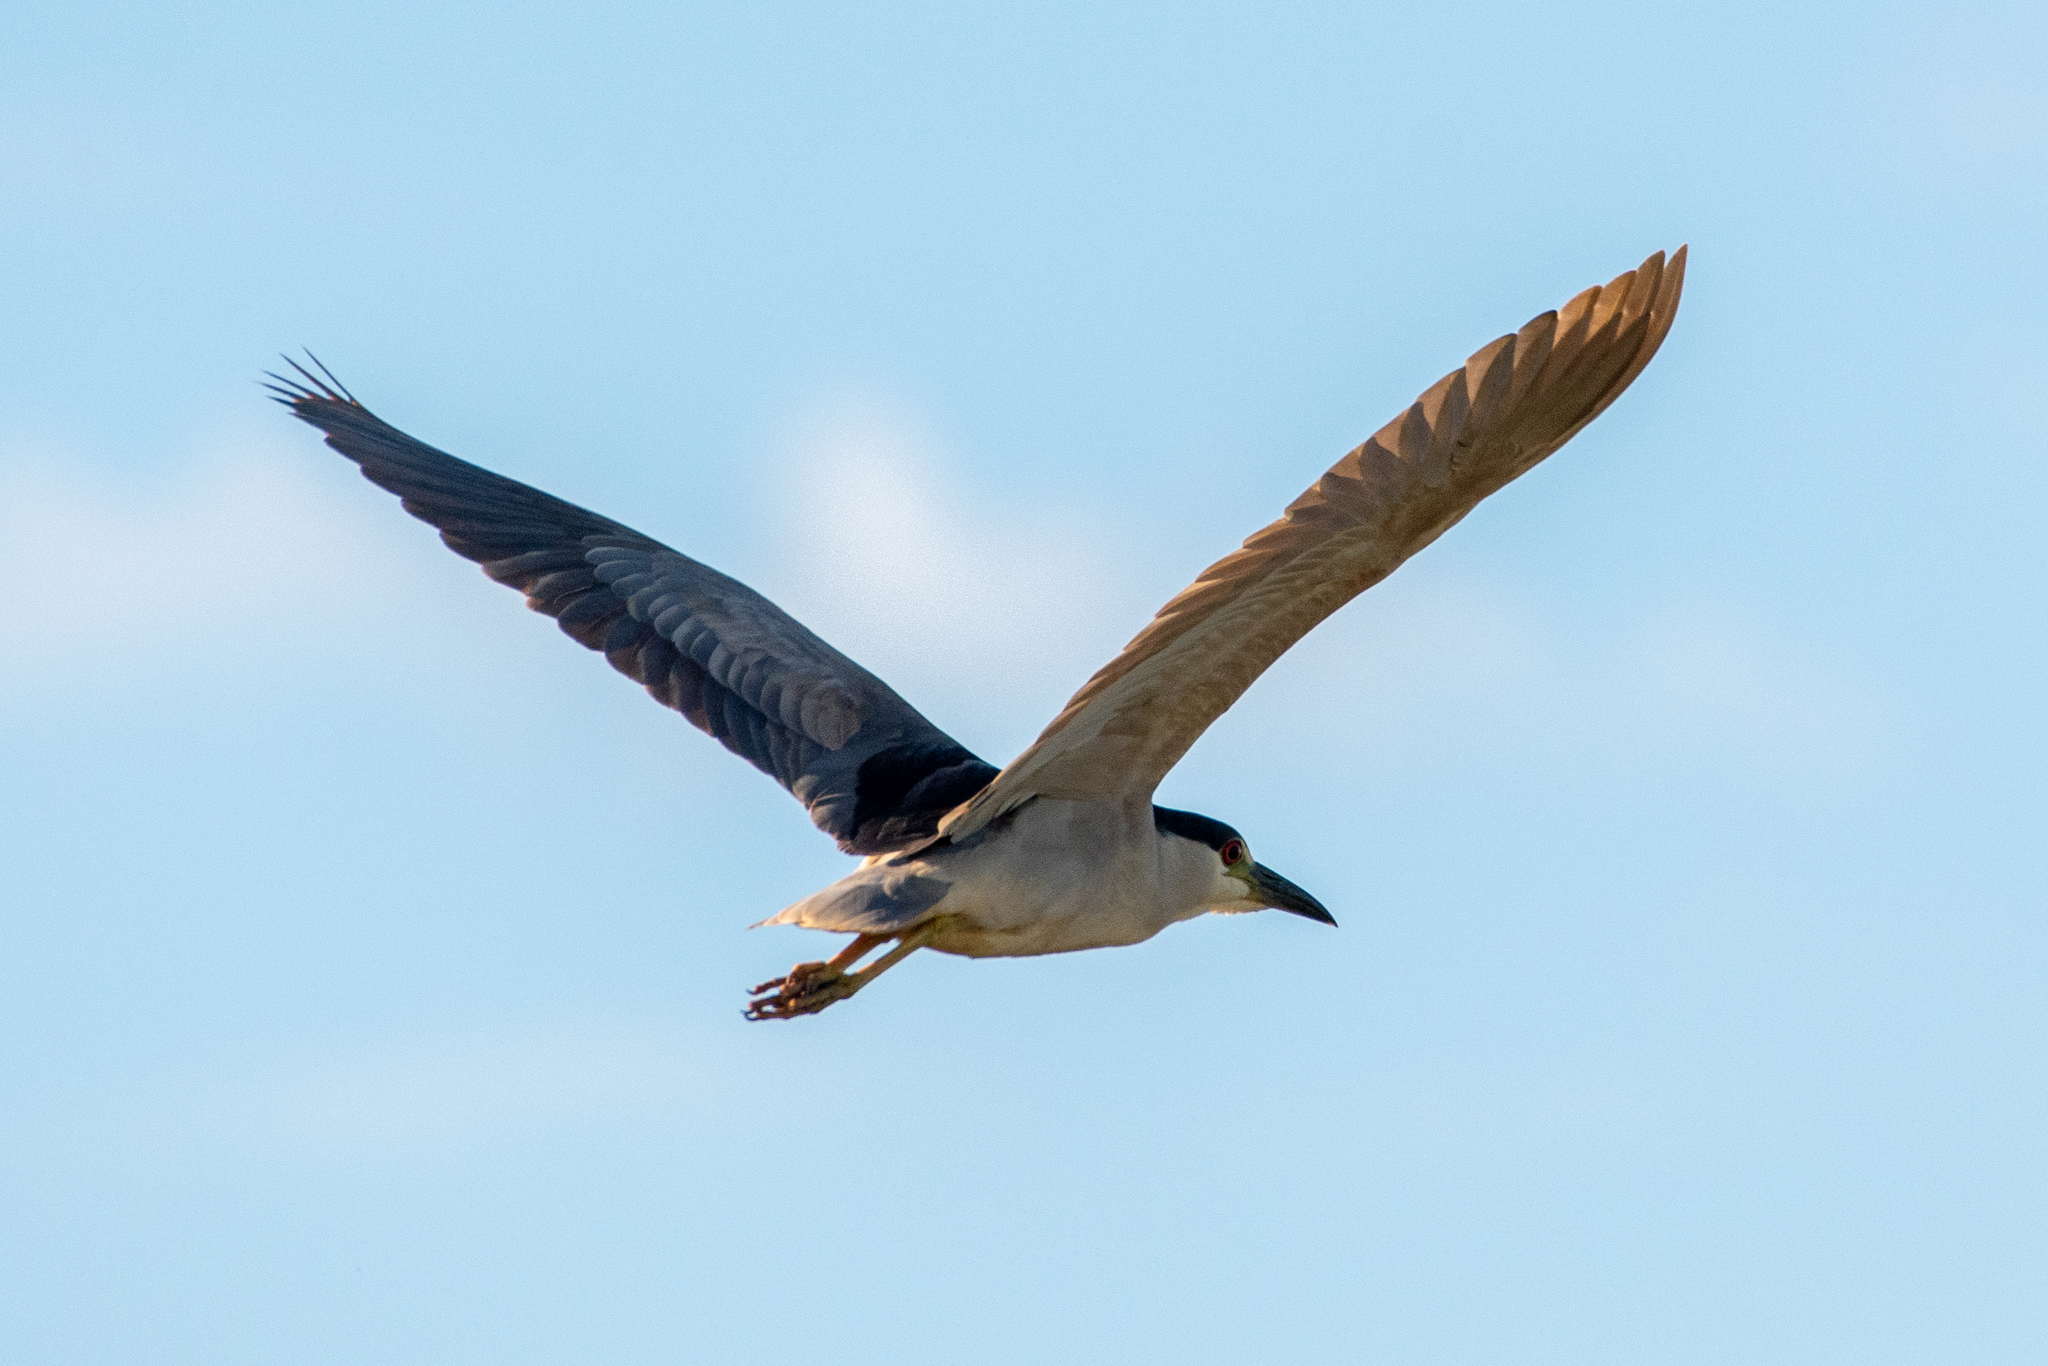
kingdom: Animalia
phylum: Chordata
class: Aves
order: Pelecaniformes
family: Ardeidae
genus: Nycticorax
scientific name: Nycticorax nycticorax
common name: Black-crowned night heron
